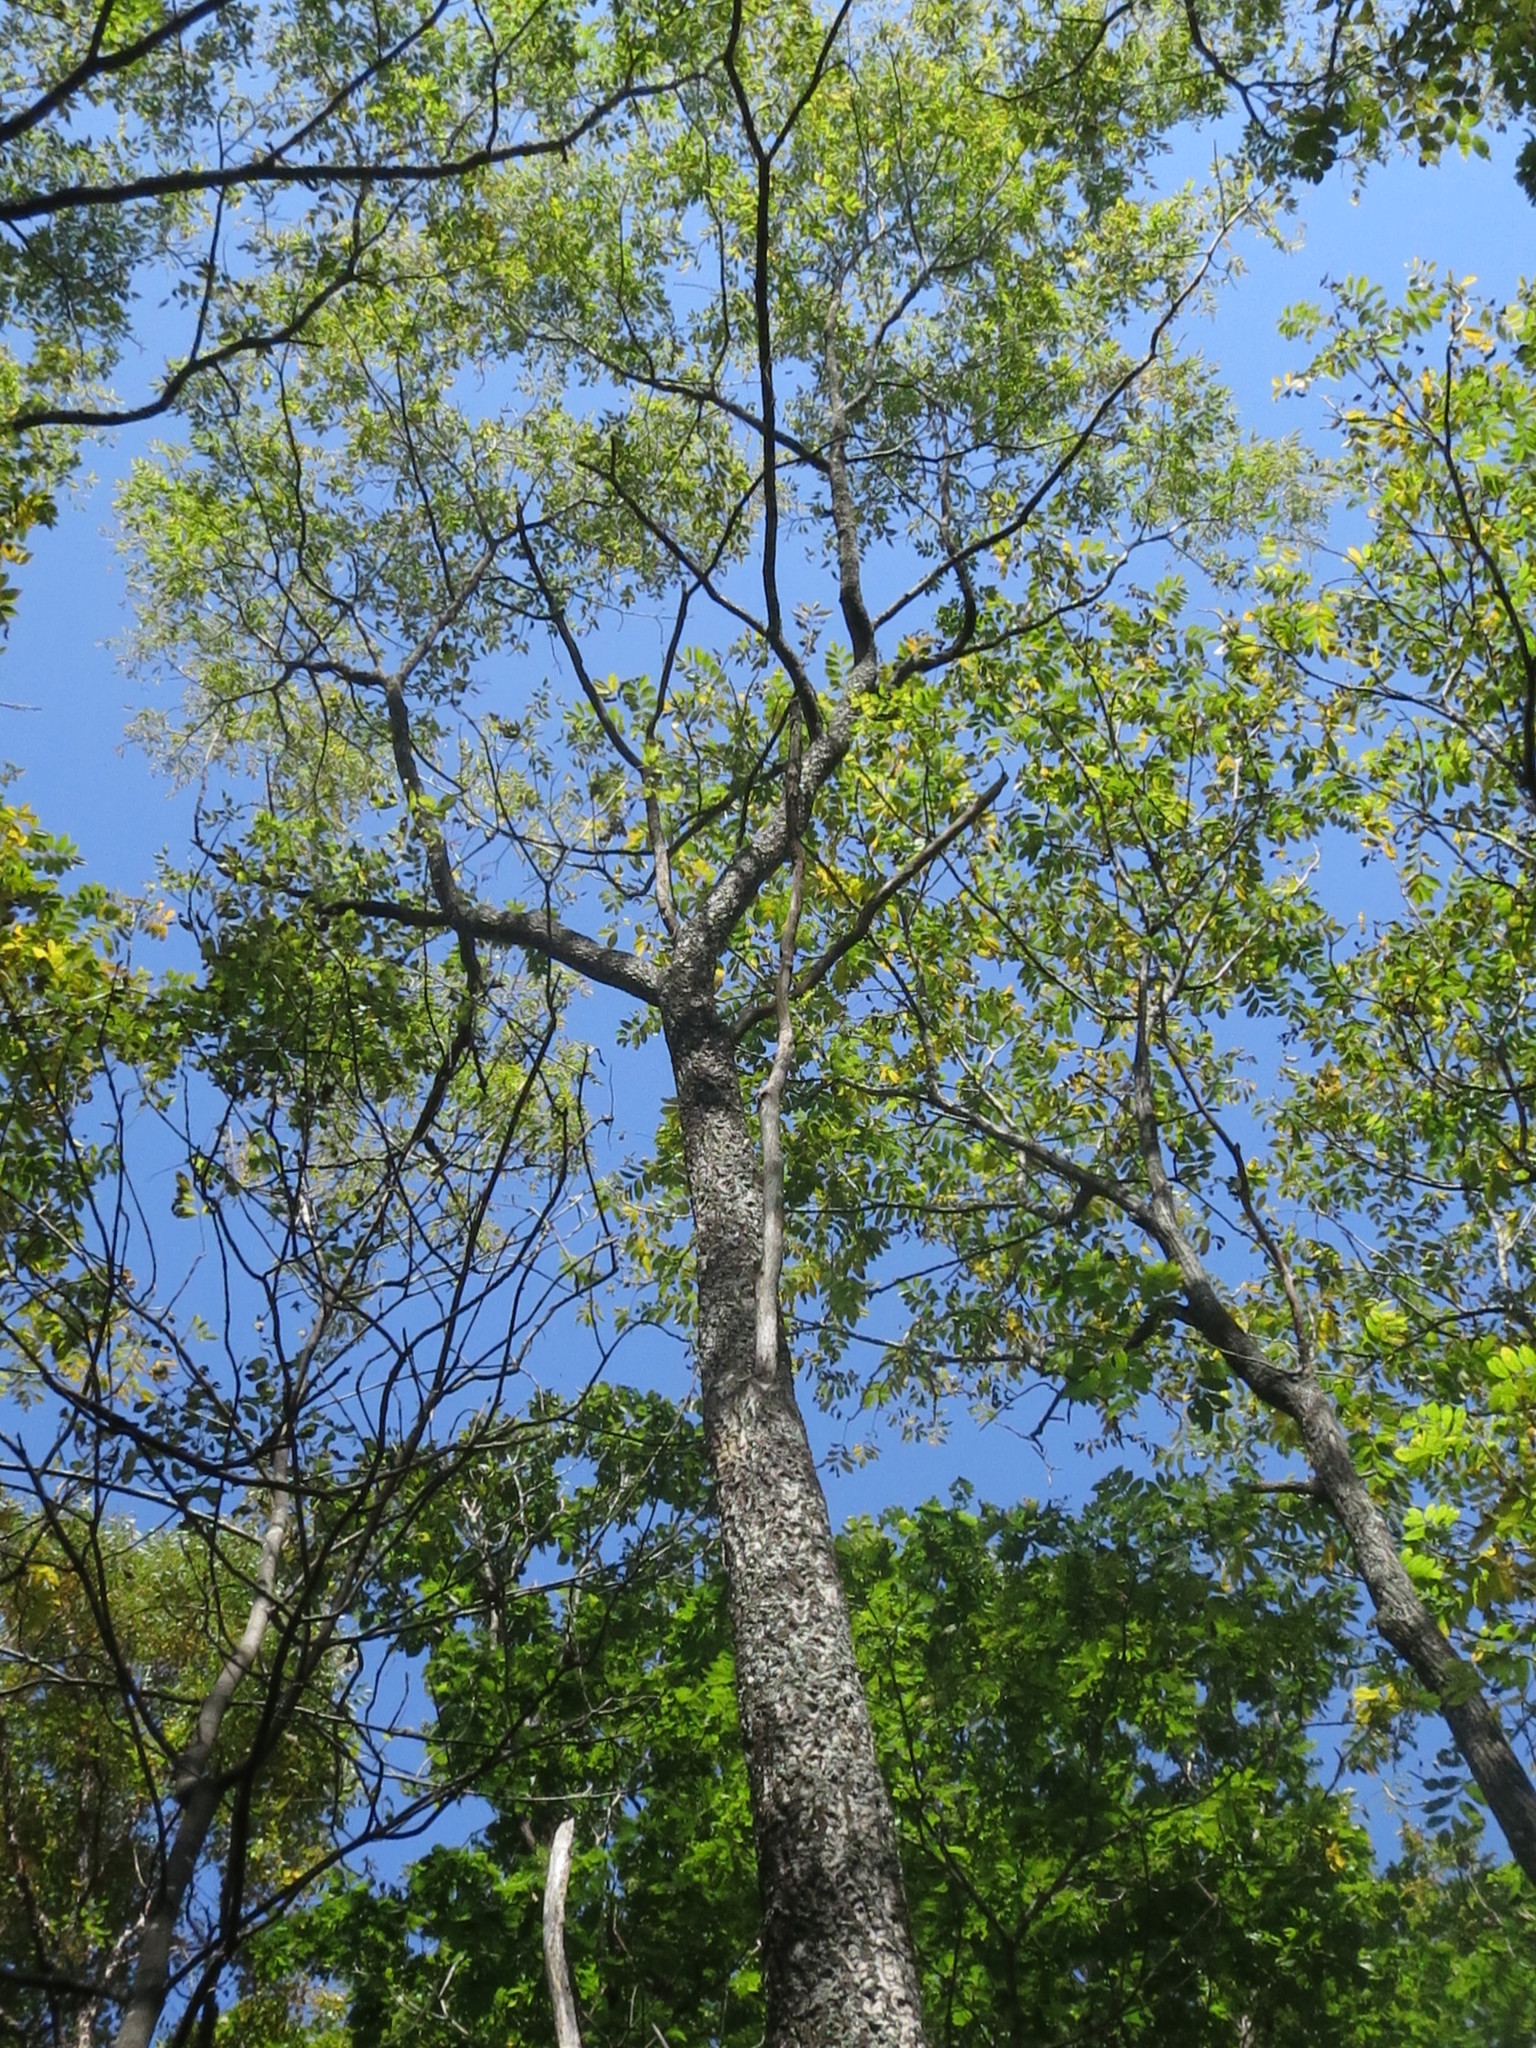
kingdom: Plantae
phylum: Tracheophyta
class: Magnoliopsida
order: Sapindales
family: Rutaceae
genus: Phellodendron
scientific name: Phellodendron amurense
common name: Amur corktree
